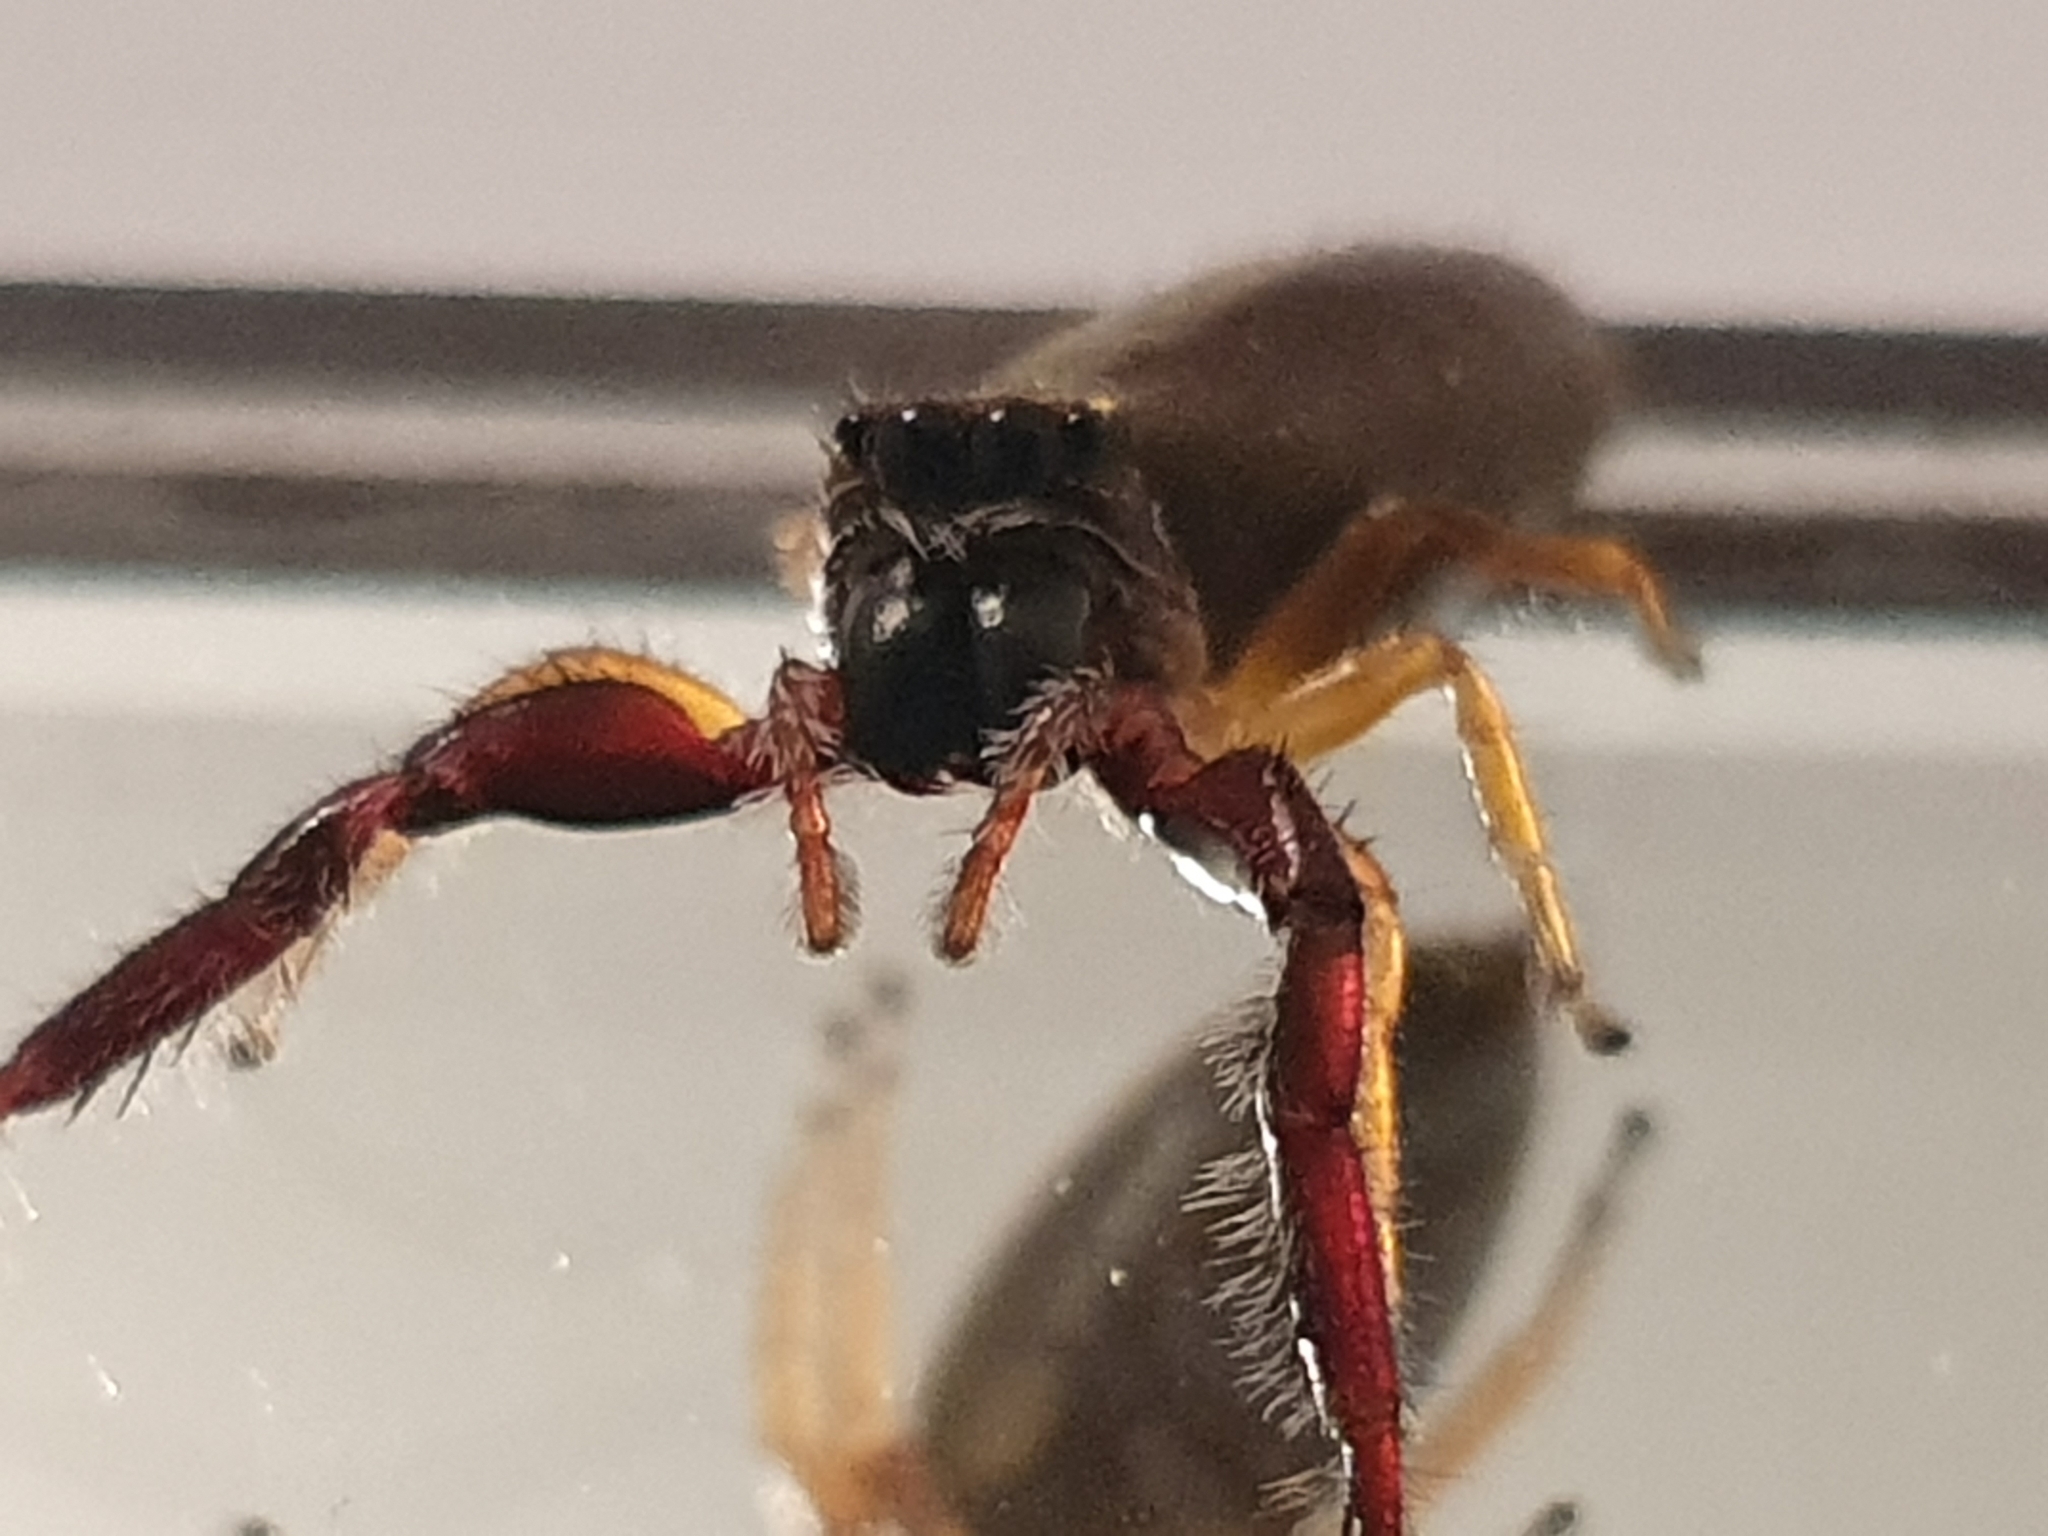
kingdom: Animalia
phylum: Arthropoda
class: Arachnida
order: Araneae
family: Salticidae
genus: Trite
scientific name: Trite planiceps
